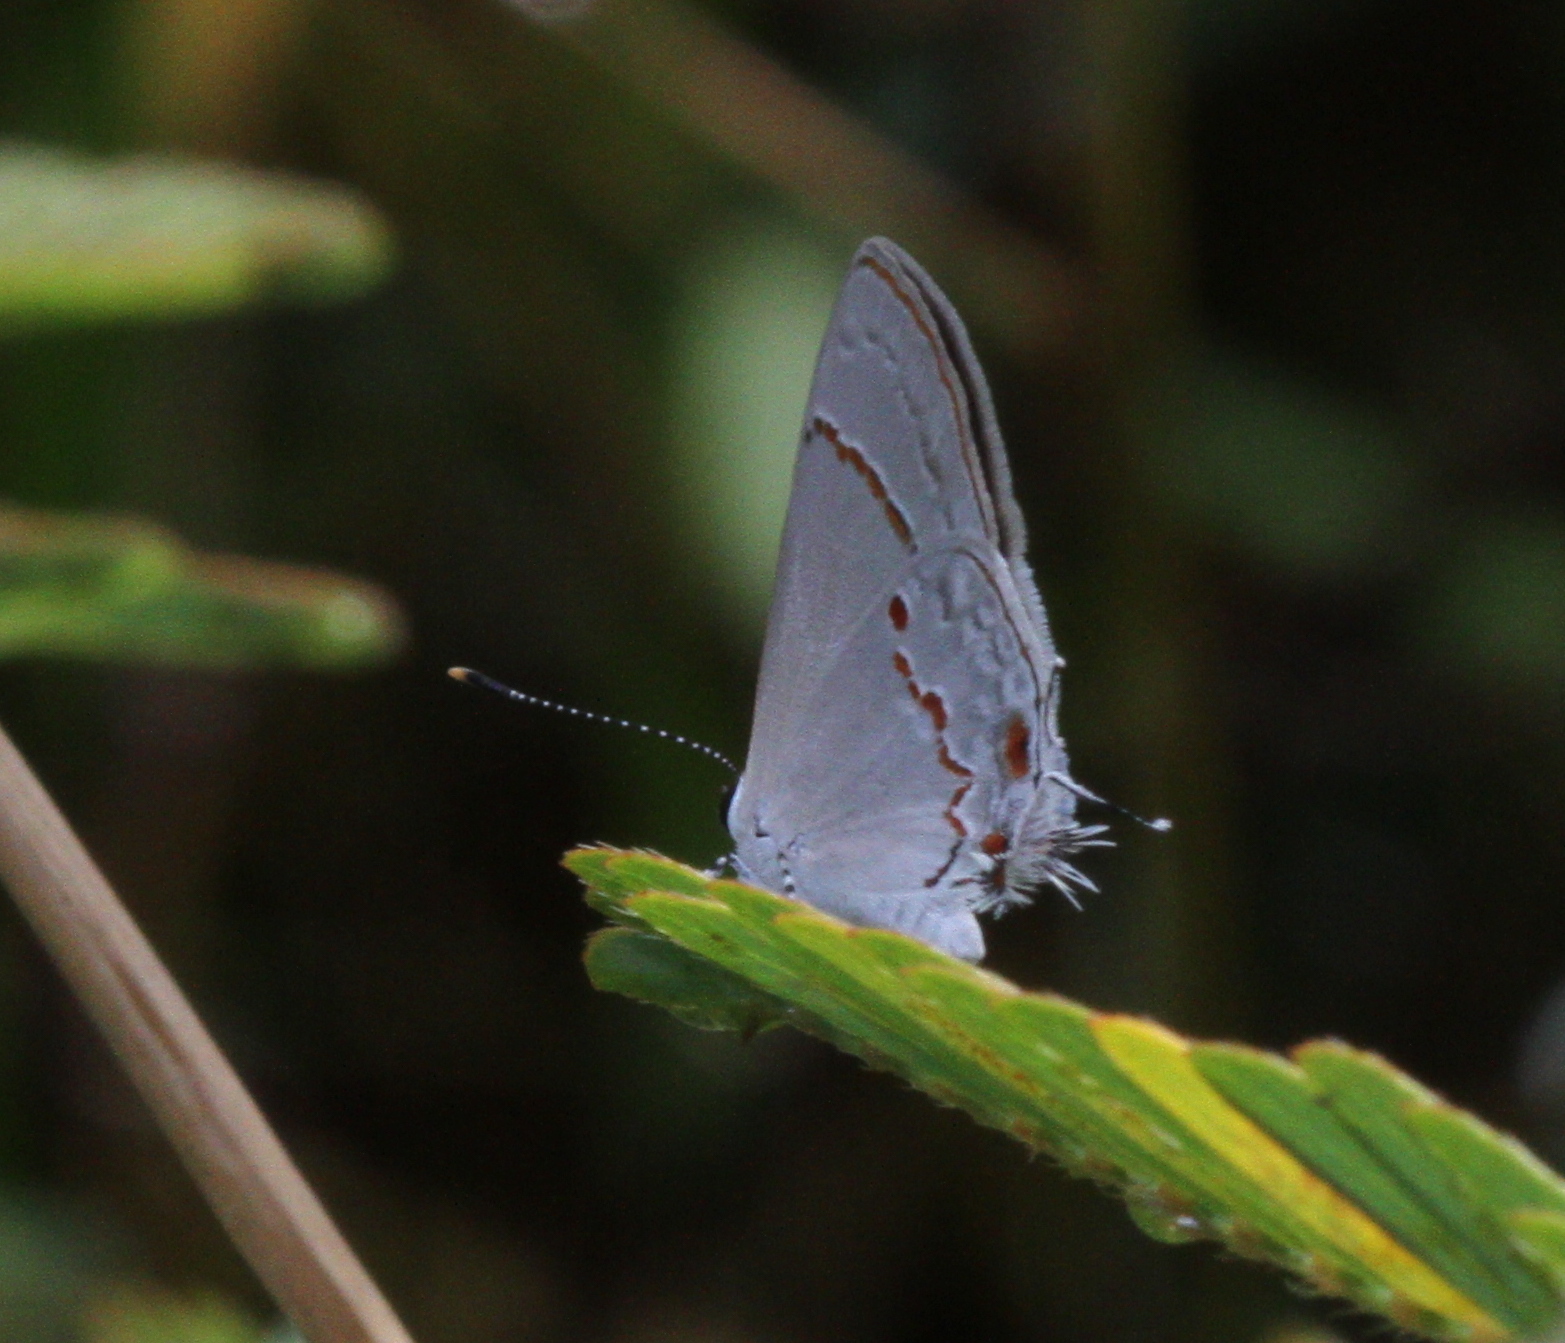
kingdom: Animalia
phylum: Arthropoda
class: Insecta
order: Lepidoptera
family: Lycaenidae
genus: Thecla
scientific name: Thecla azia
